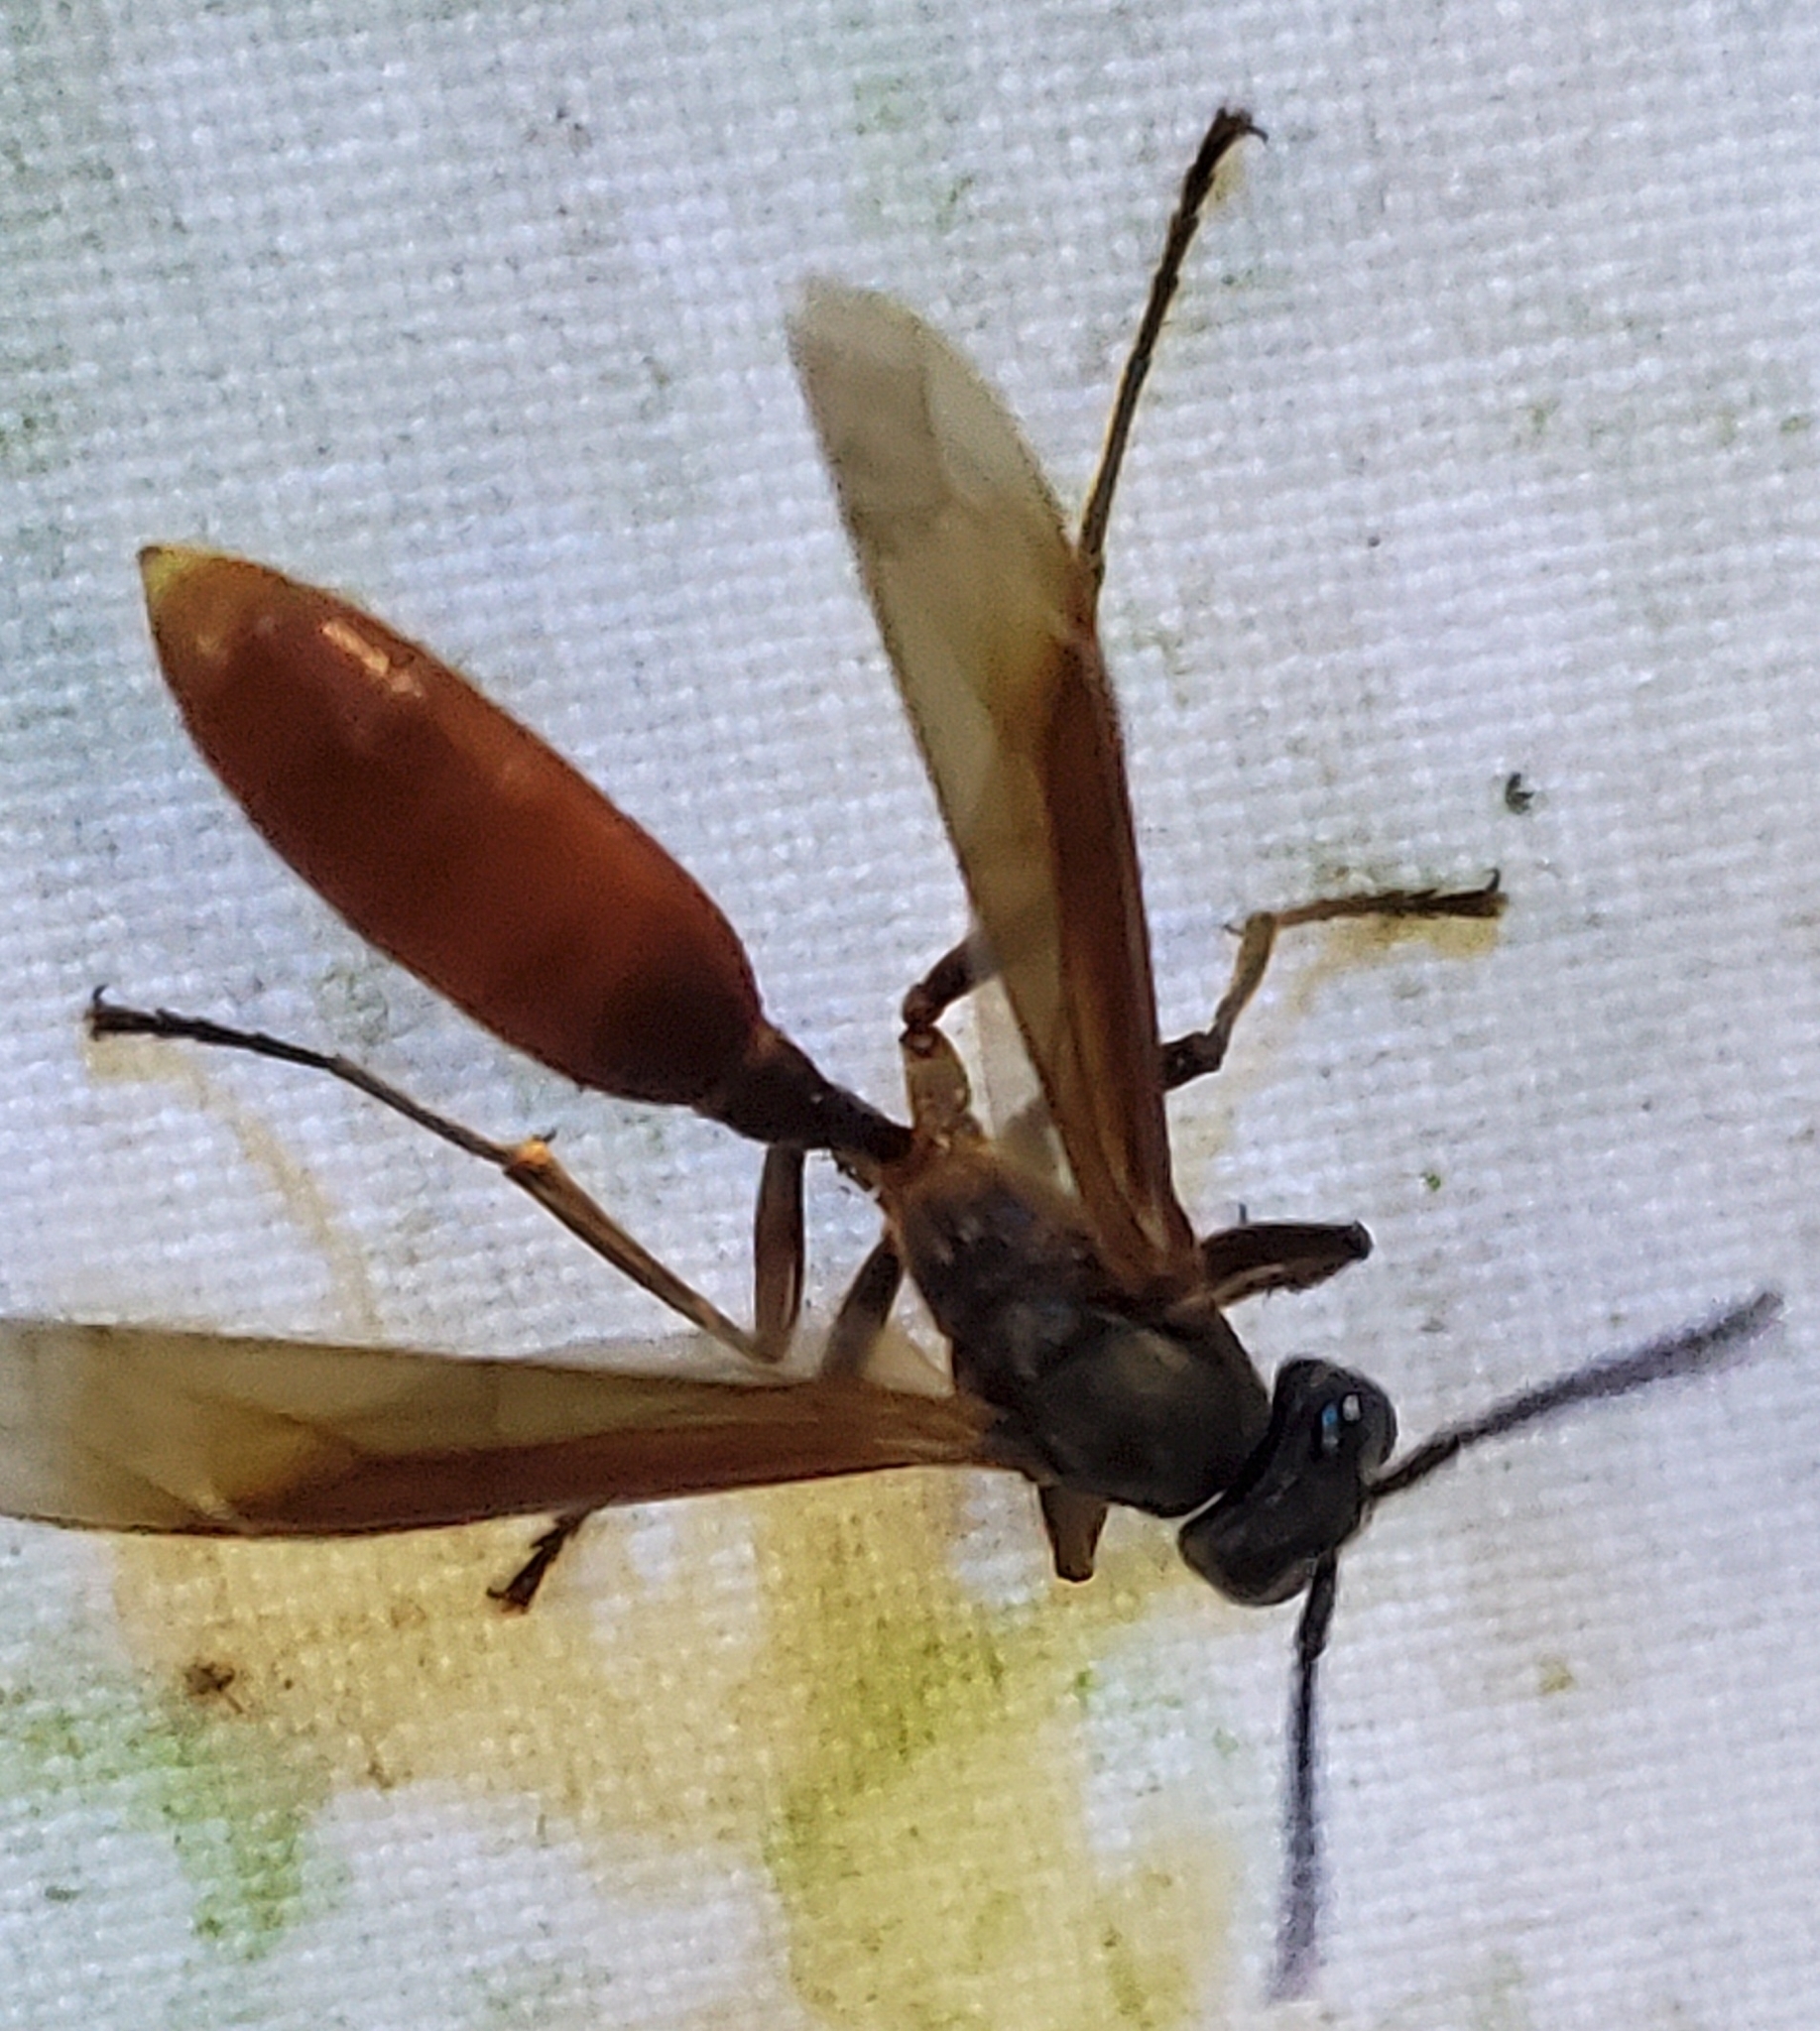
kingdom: Animalia
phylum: Arthropoda
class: Insecta
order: Hymenoptera
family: Vespidae
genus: Apoica
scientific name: Apoica
